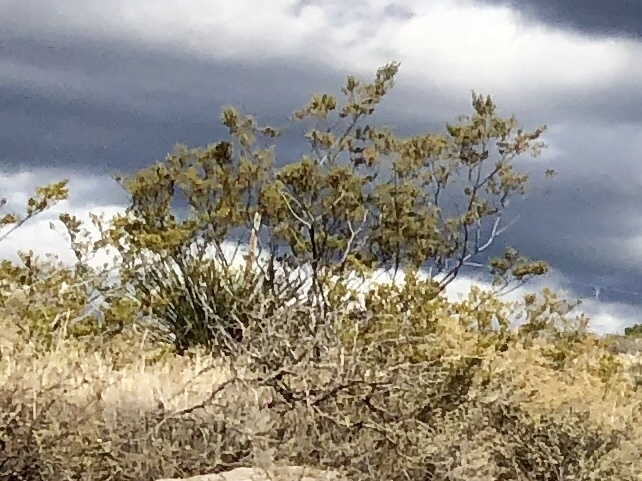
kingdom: Plantae
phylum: Tracheophyta
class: Magnoliopsida
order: Zygophyllales
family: Zygophyllaceae
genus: Larrea
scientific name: Larrea tridentata
